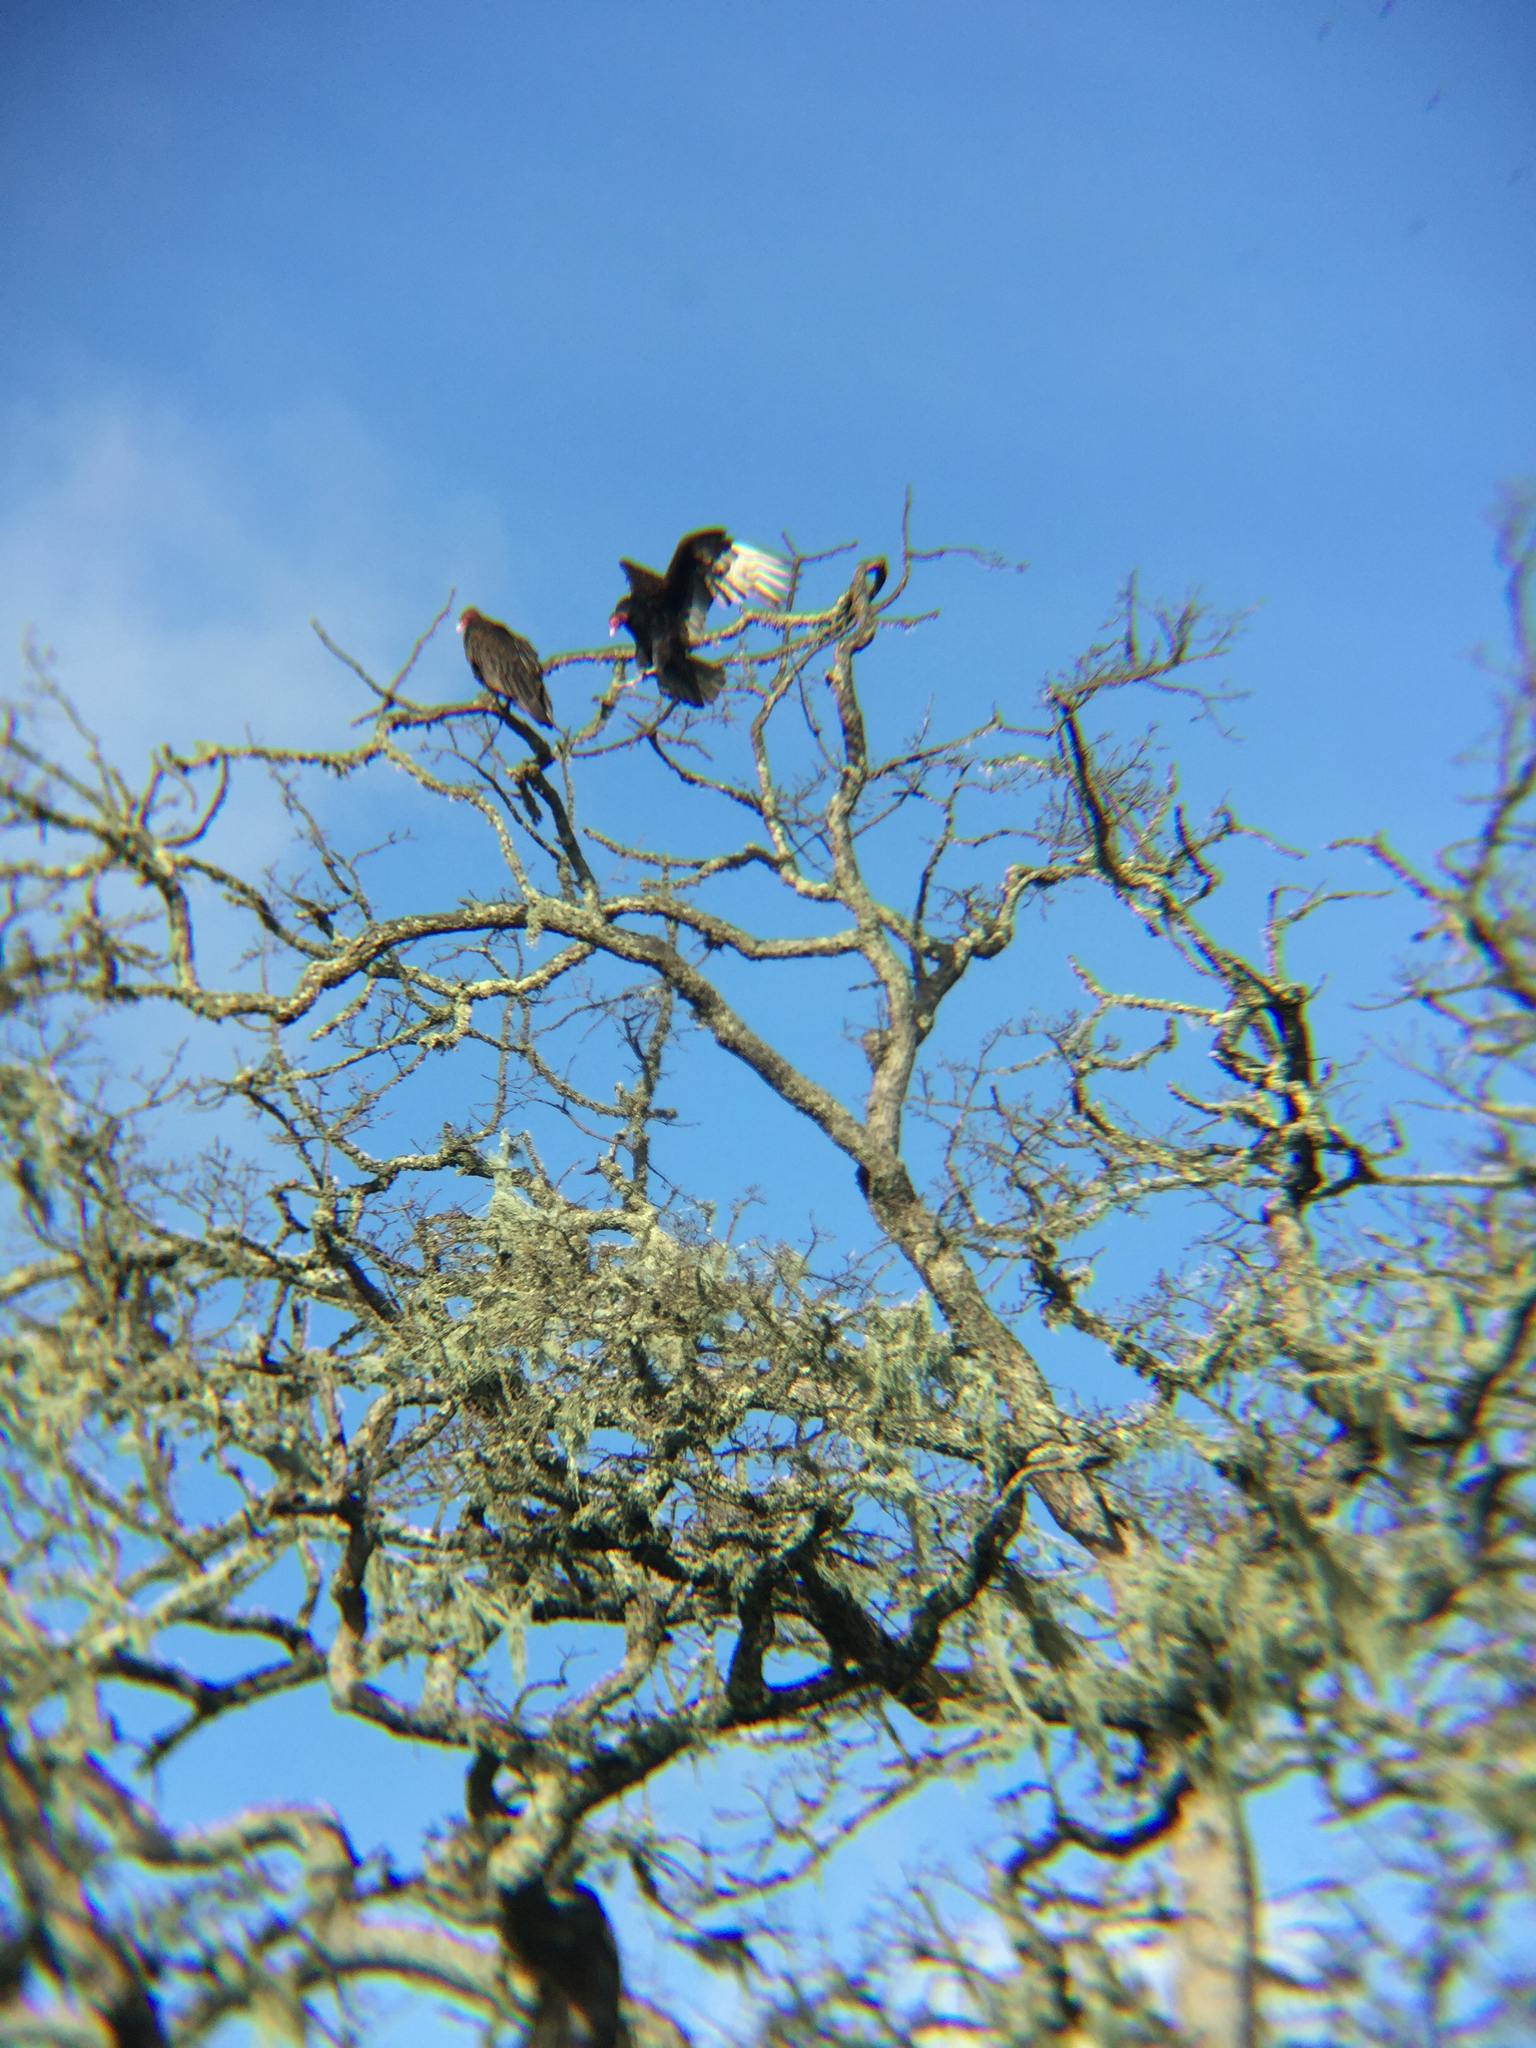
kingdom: Animalia
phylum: Chordata
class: Aves
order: Accipitriformes
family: Cathartidae
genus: Cathartes
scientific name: Cathartes aura
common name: Turkey vulture
